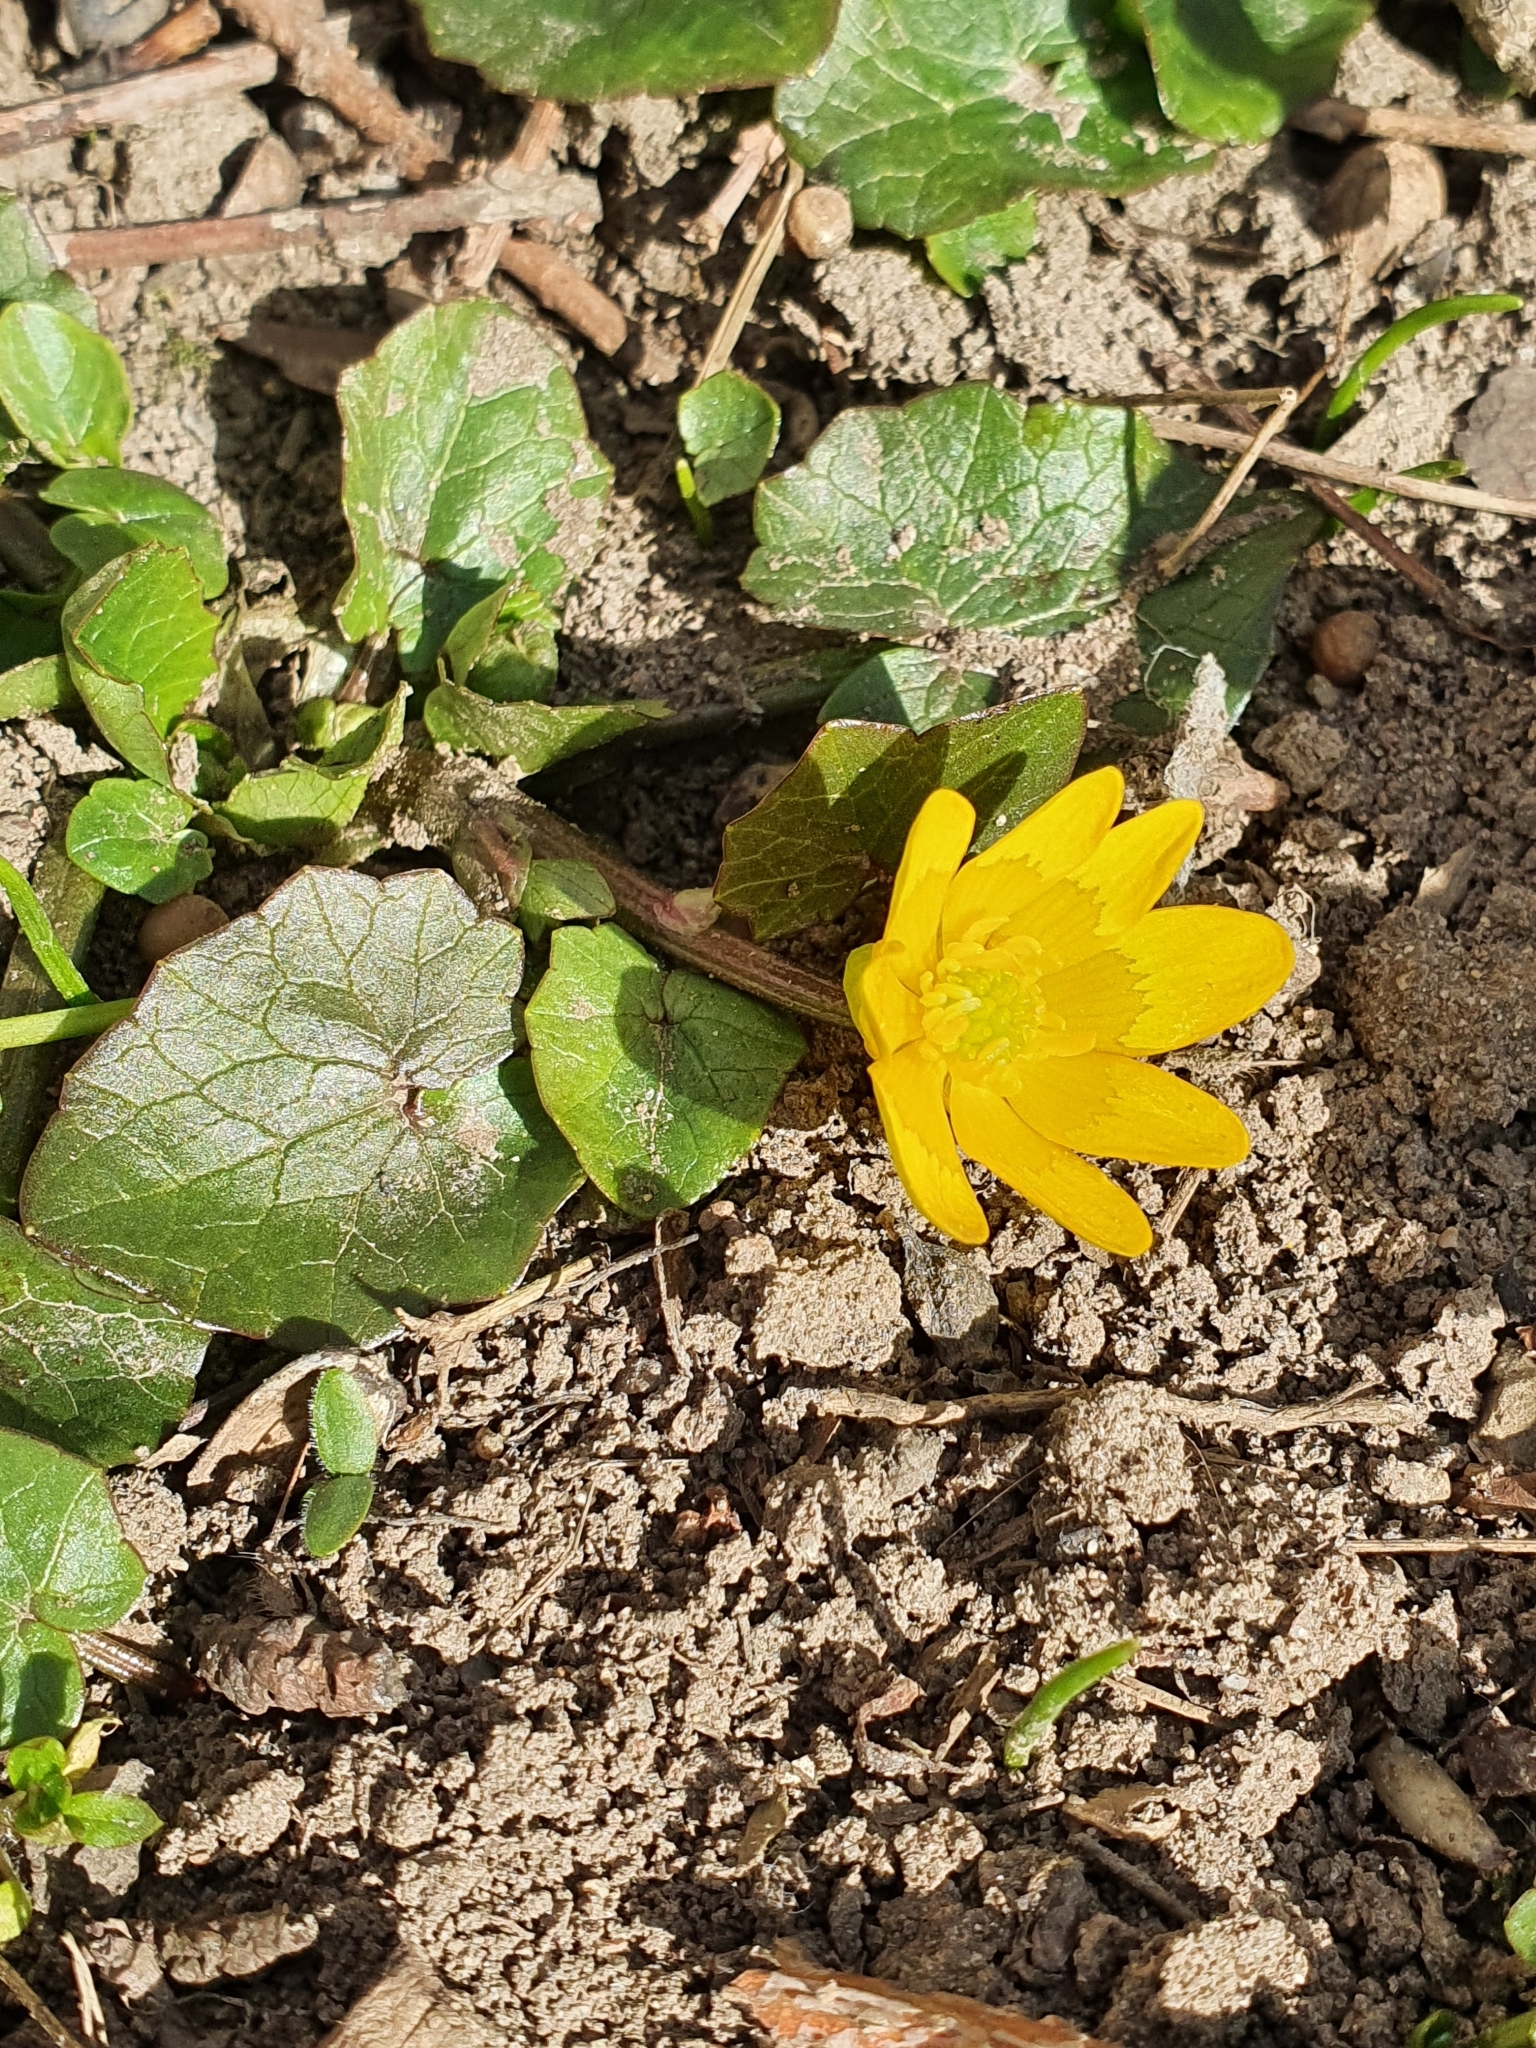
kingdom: Plantae
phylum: Tracheophyta
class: Magnoliopsida
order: Ranunculales
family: Ranunculaceae
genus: Ficaria
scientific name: Ficaria verna
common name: Lesser celandine
